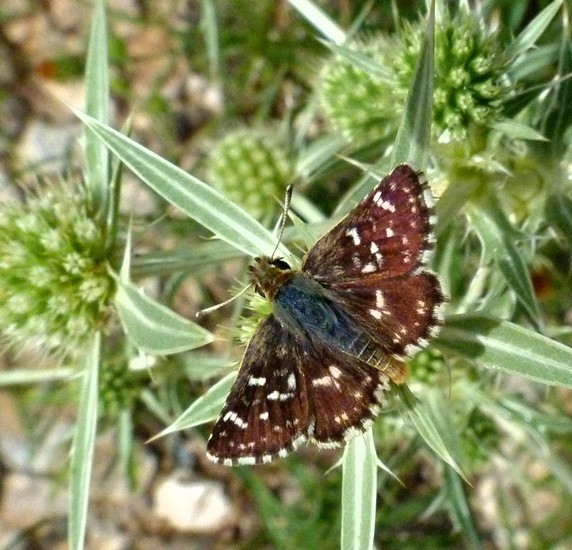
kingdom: Animalia
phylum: Arthropoda
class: Insecta
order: Lepidoptera
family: Hesperiidae
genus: Spialia
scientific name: Spialia sertorius
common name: Red underwing skipper
